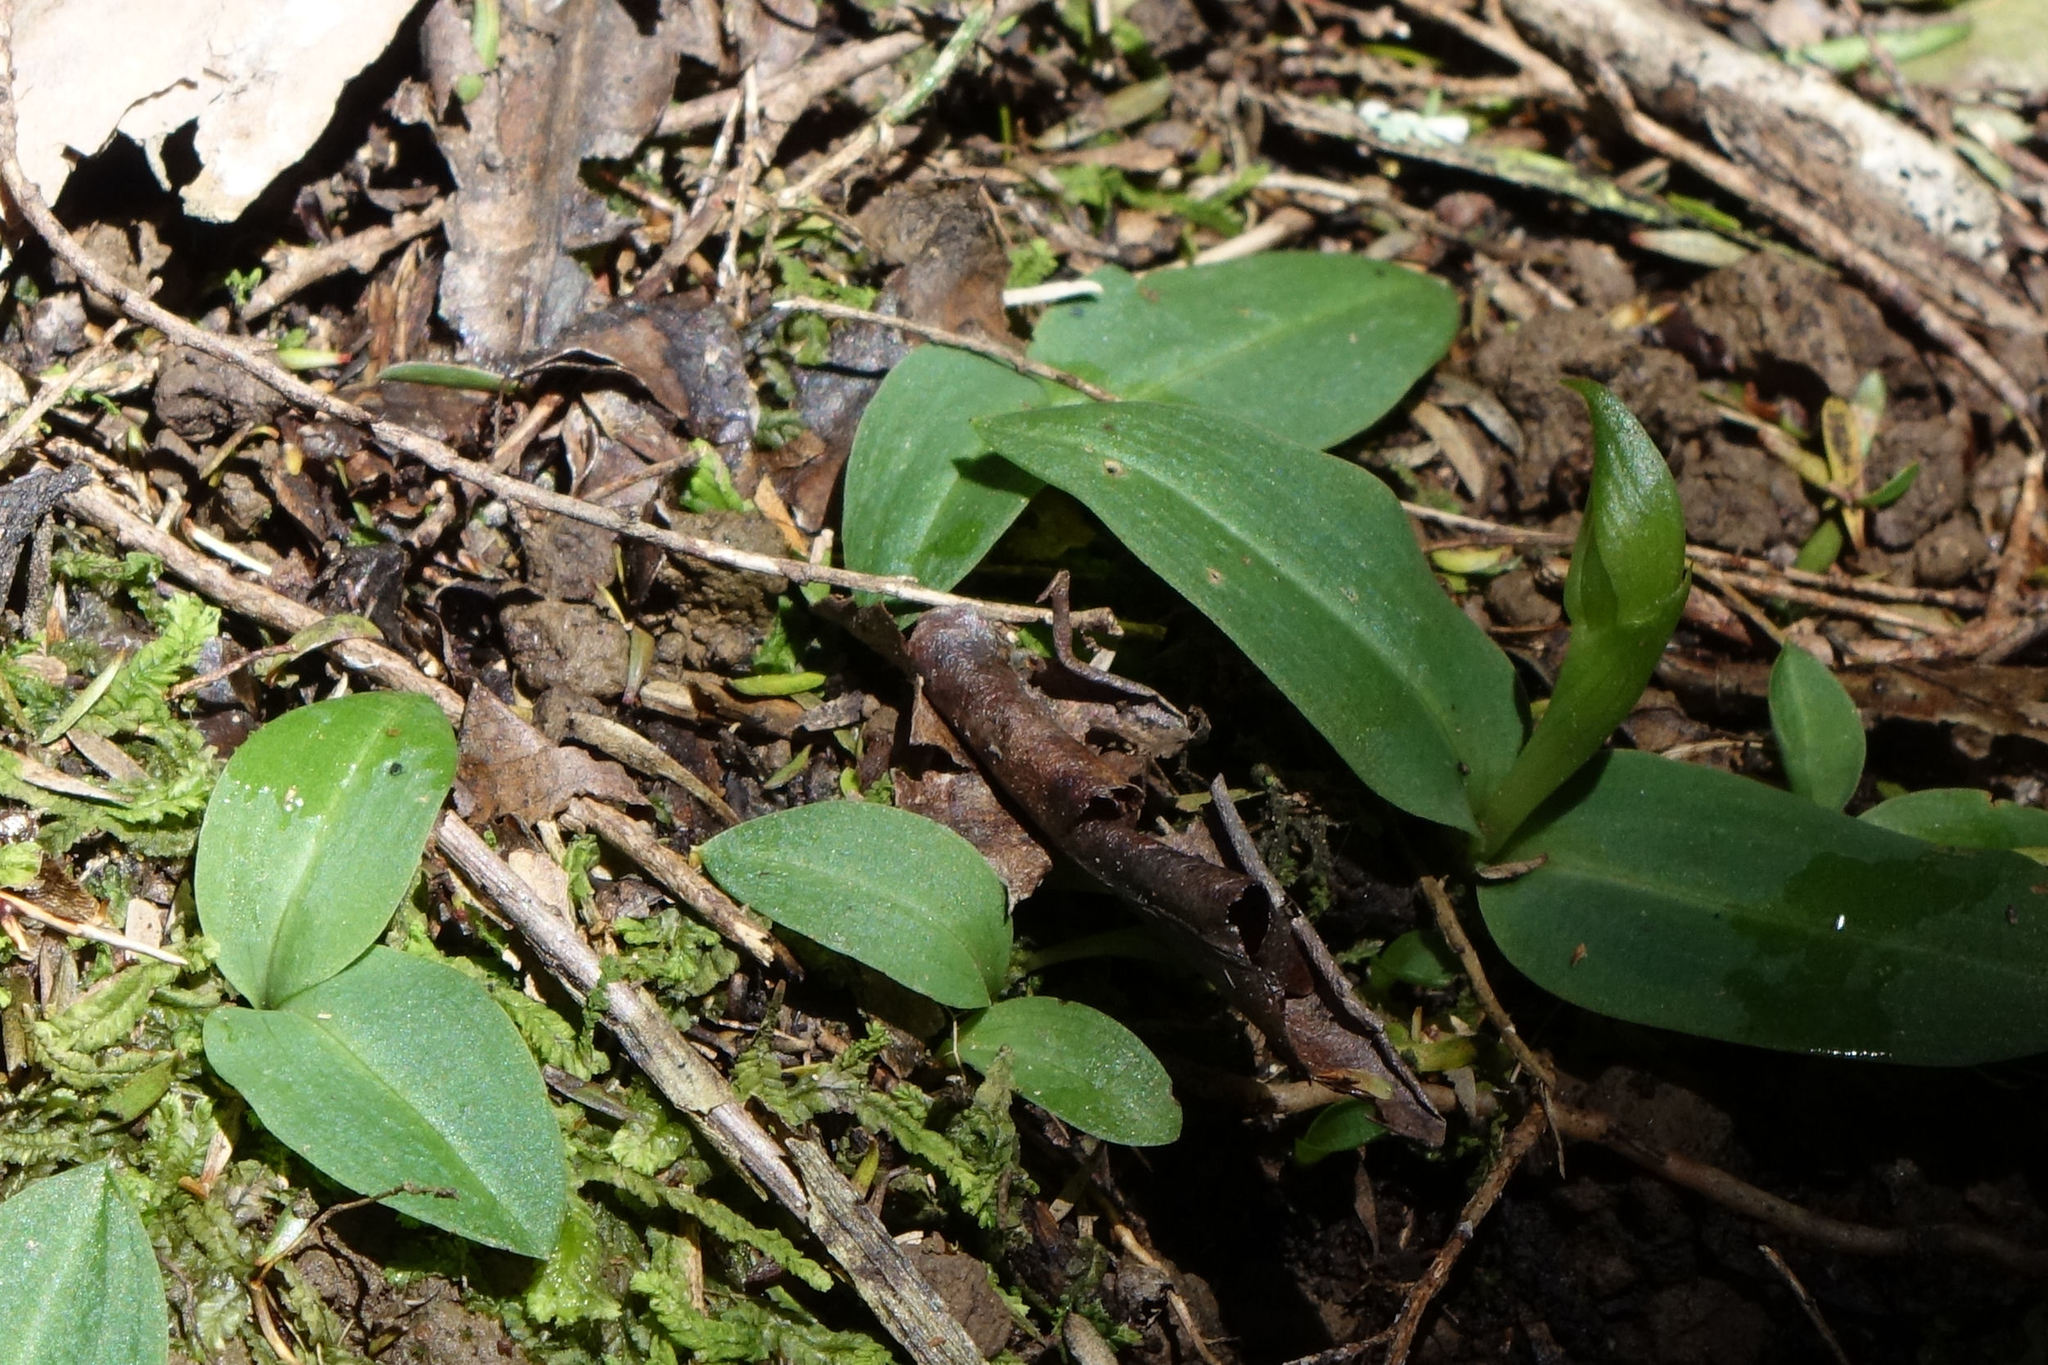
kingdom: Plantae
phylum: Tracheophyta
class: Liliopsida
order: Asparagales
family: Orchidaceae
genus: Chiloglottis
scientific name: Chiloglottis cornuta
